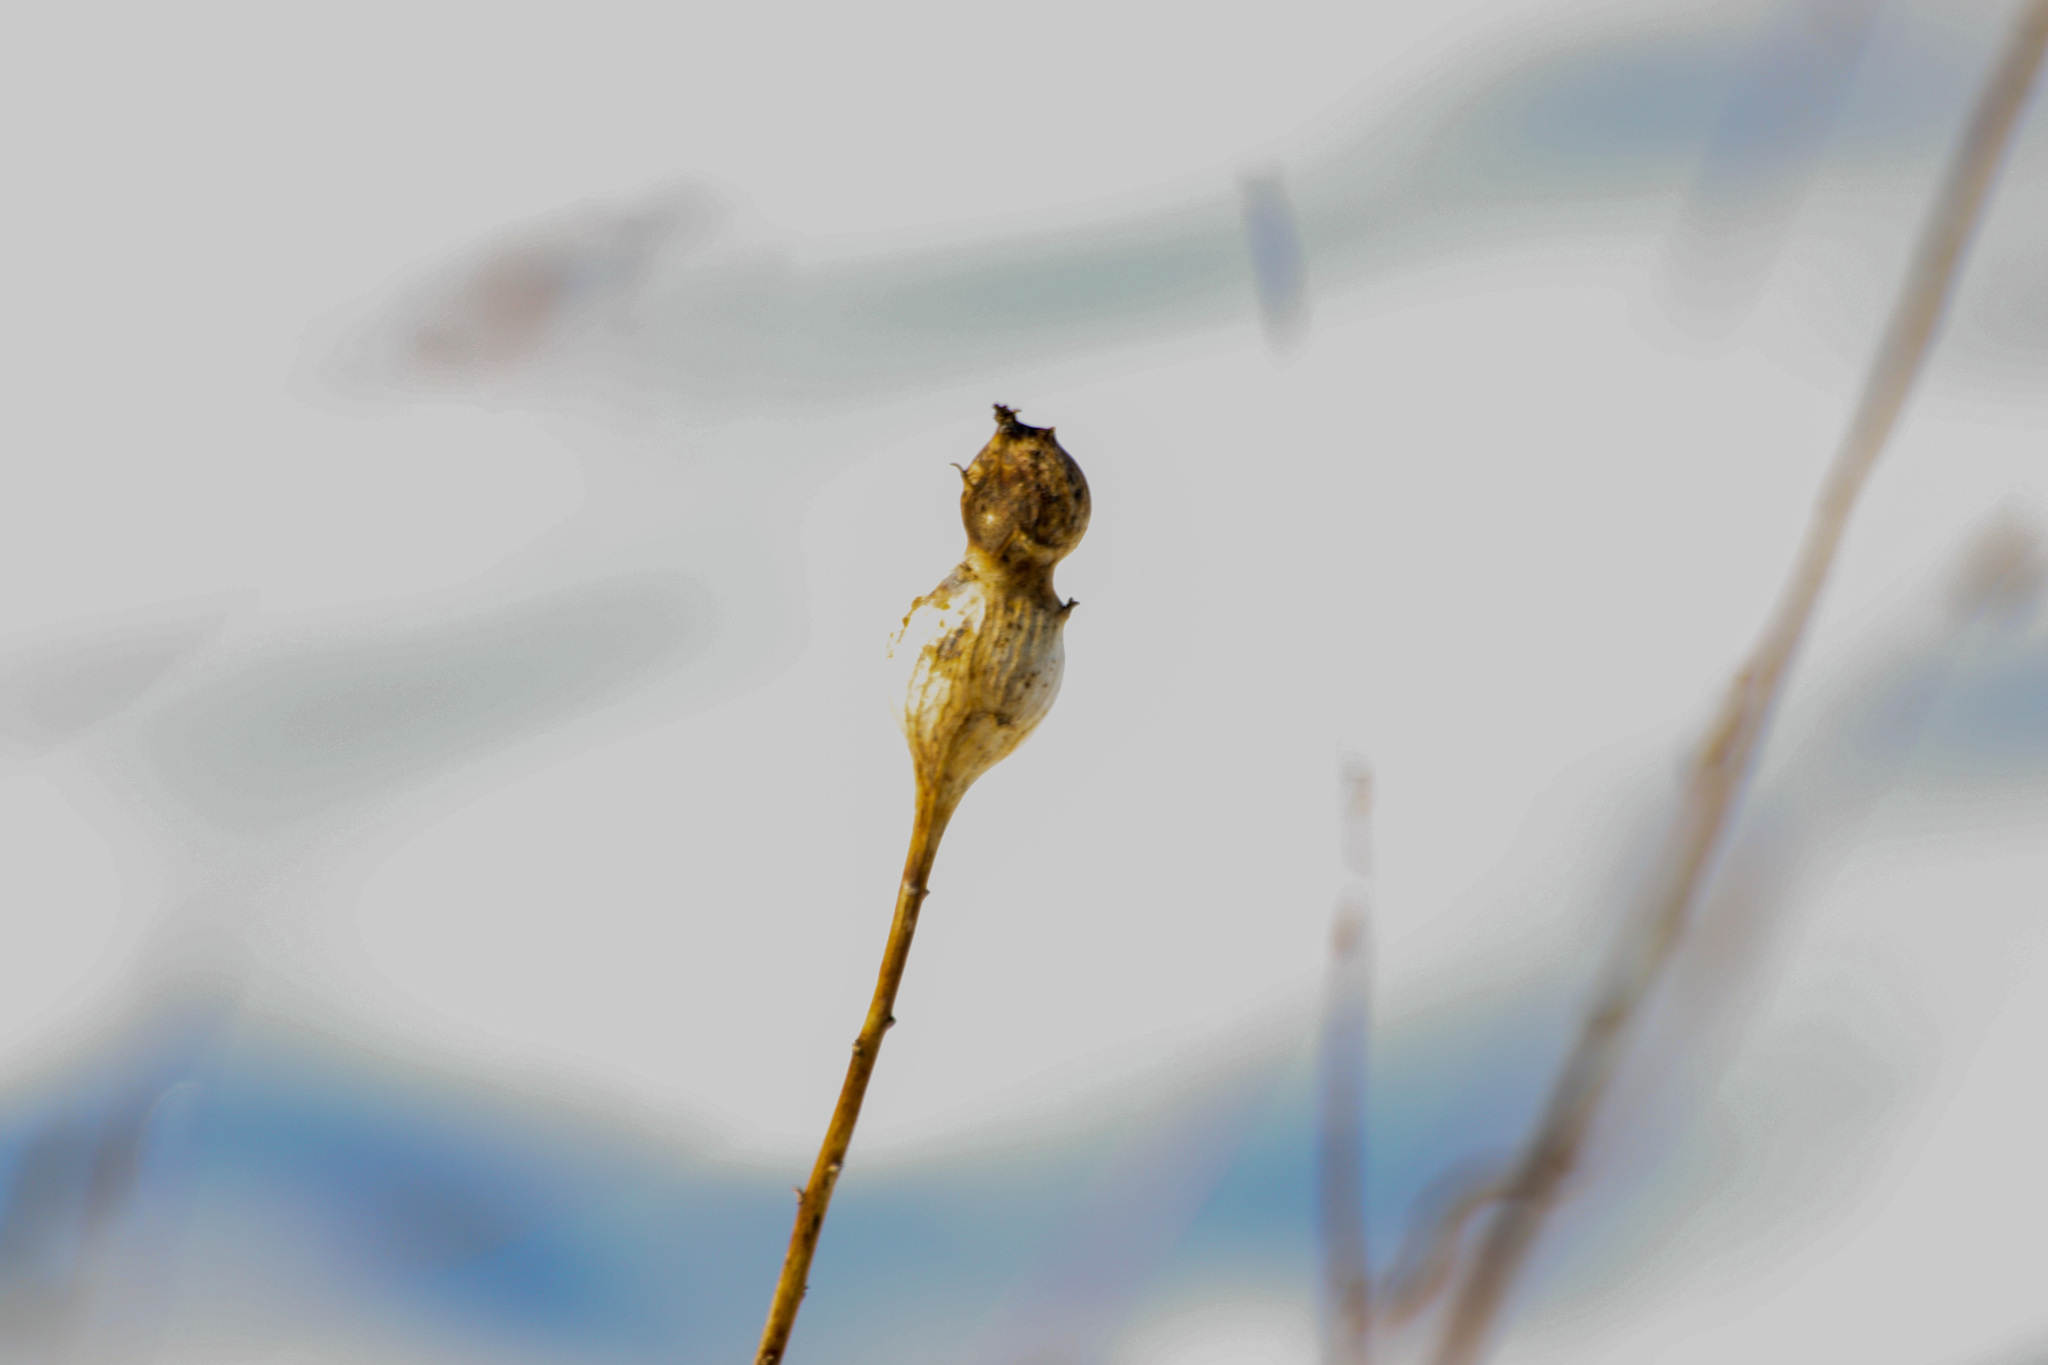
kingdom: Animalia
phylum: Arthropoda
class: Insecta
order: Diptera
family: Tephritidae
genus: Eurosta
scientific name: Eurosta solidaginis
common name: Goldenrod gall fly
